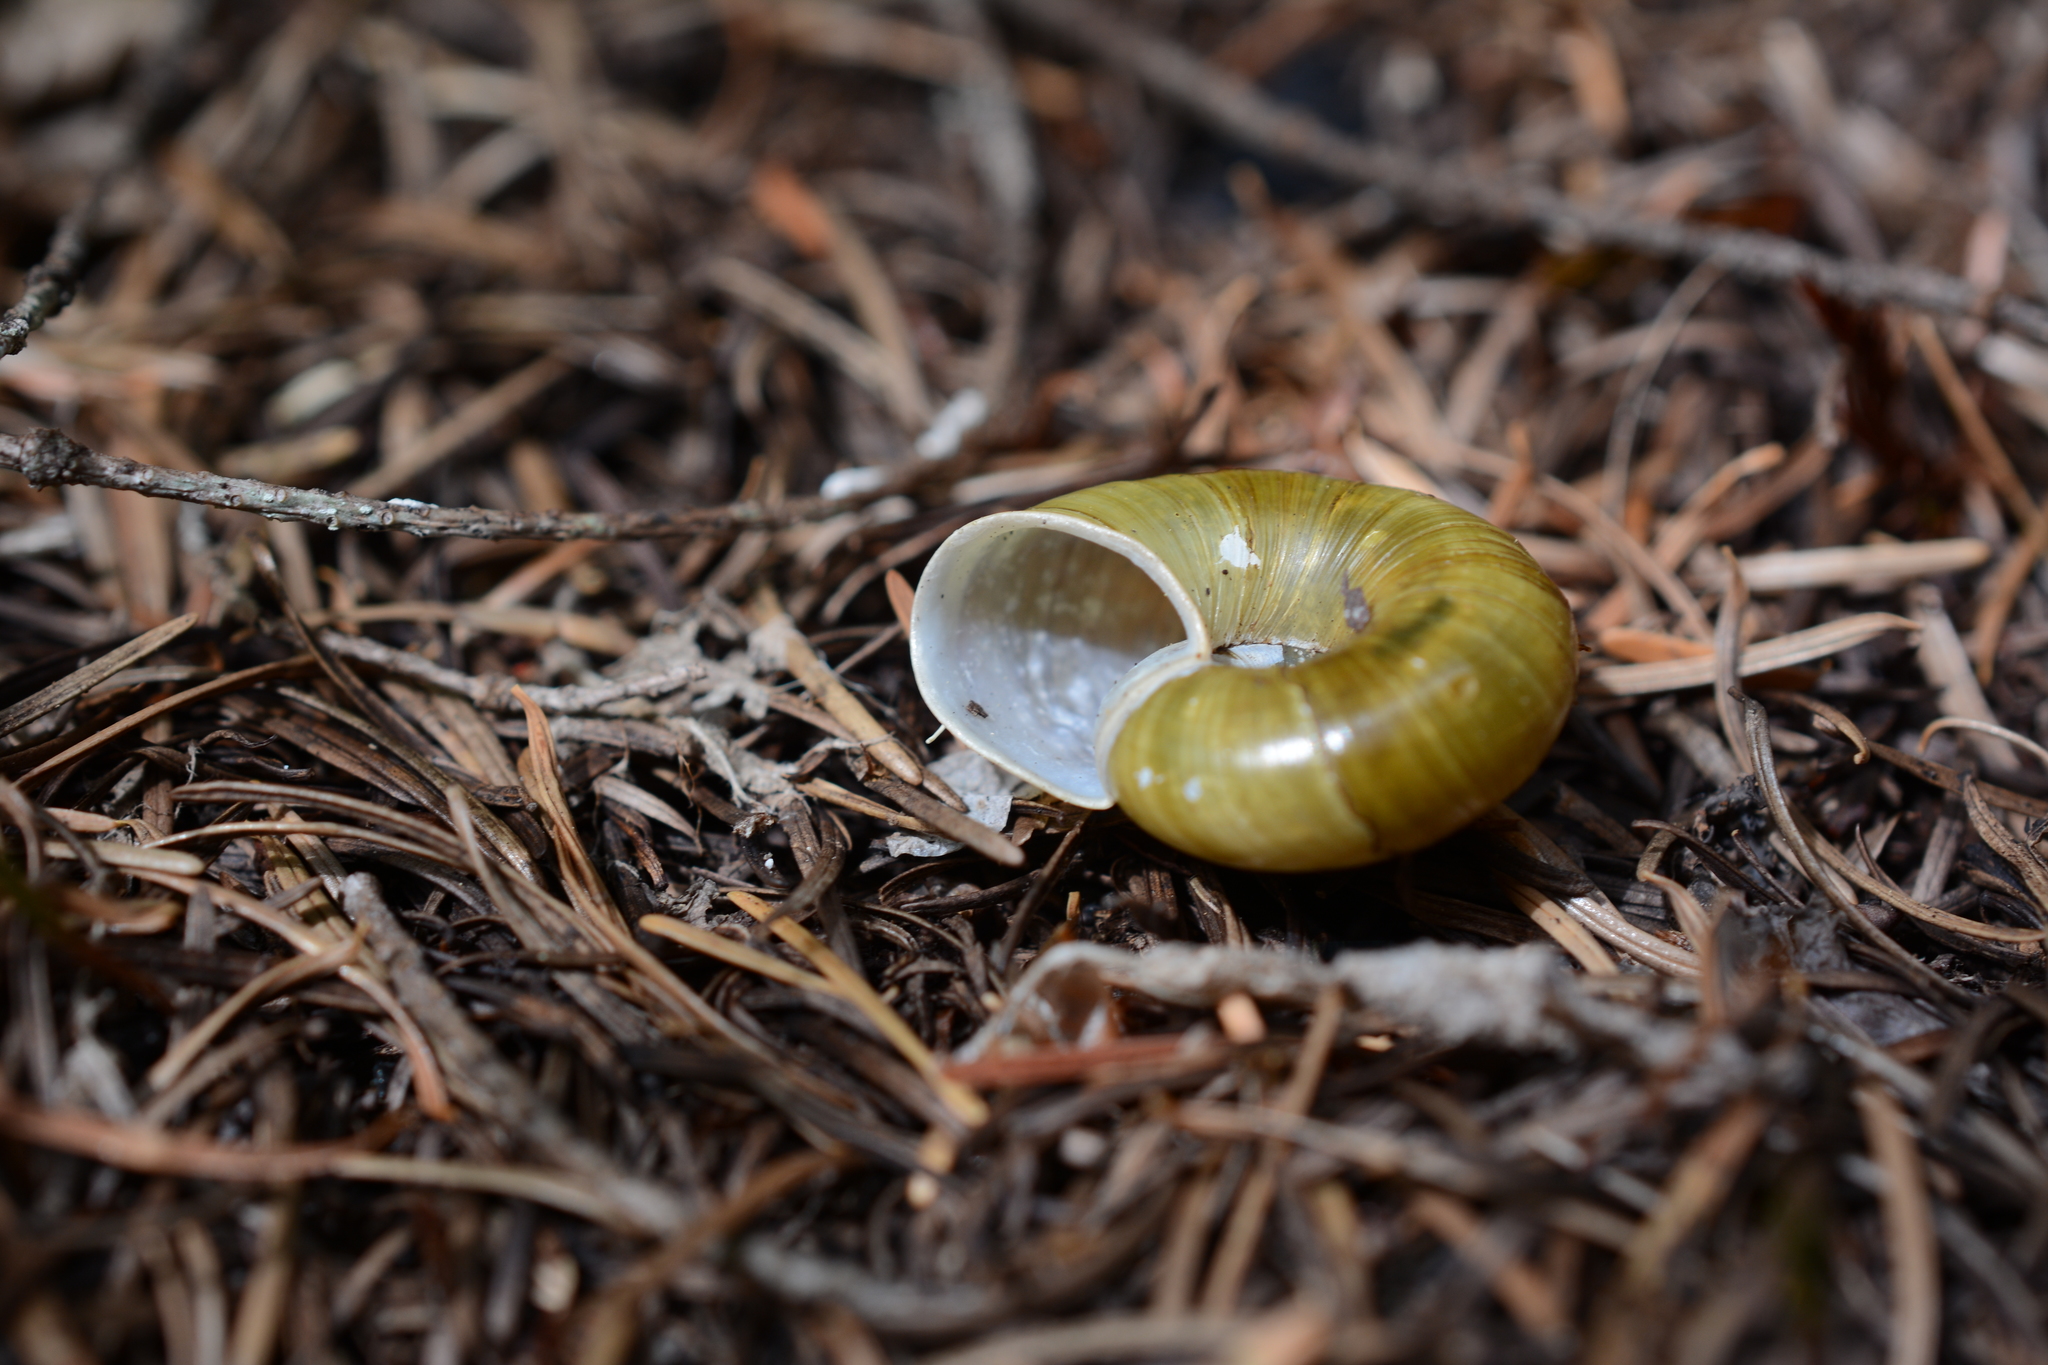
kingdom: Animalia
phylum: Mollusca
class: Gastropoda
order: Stylommatophora
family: Haplotrematidae
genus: Haplotrema
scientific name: Haplotrema vancouverense
